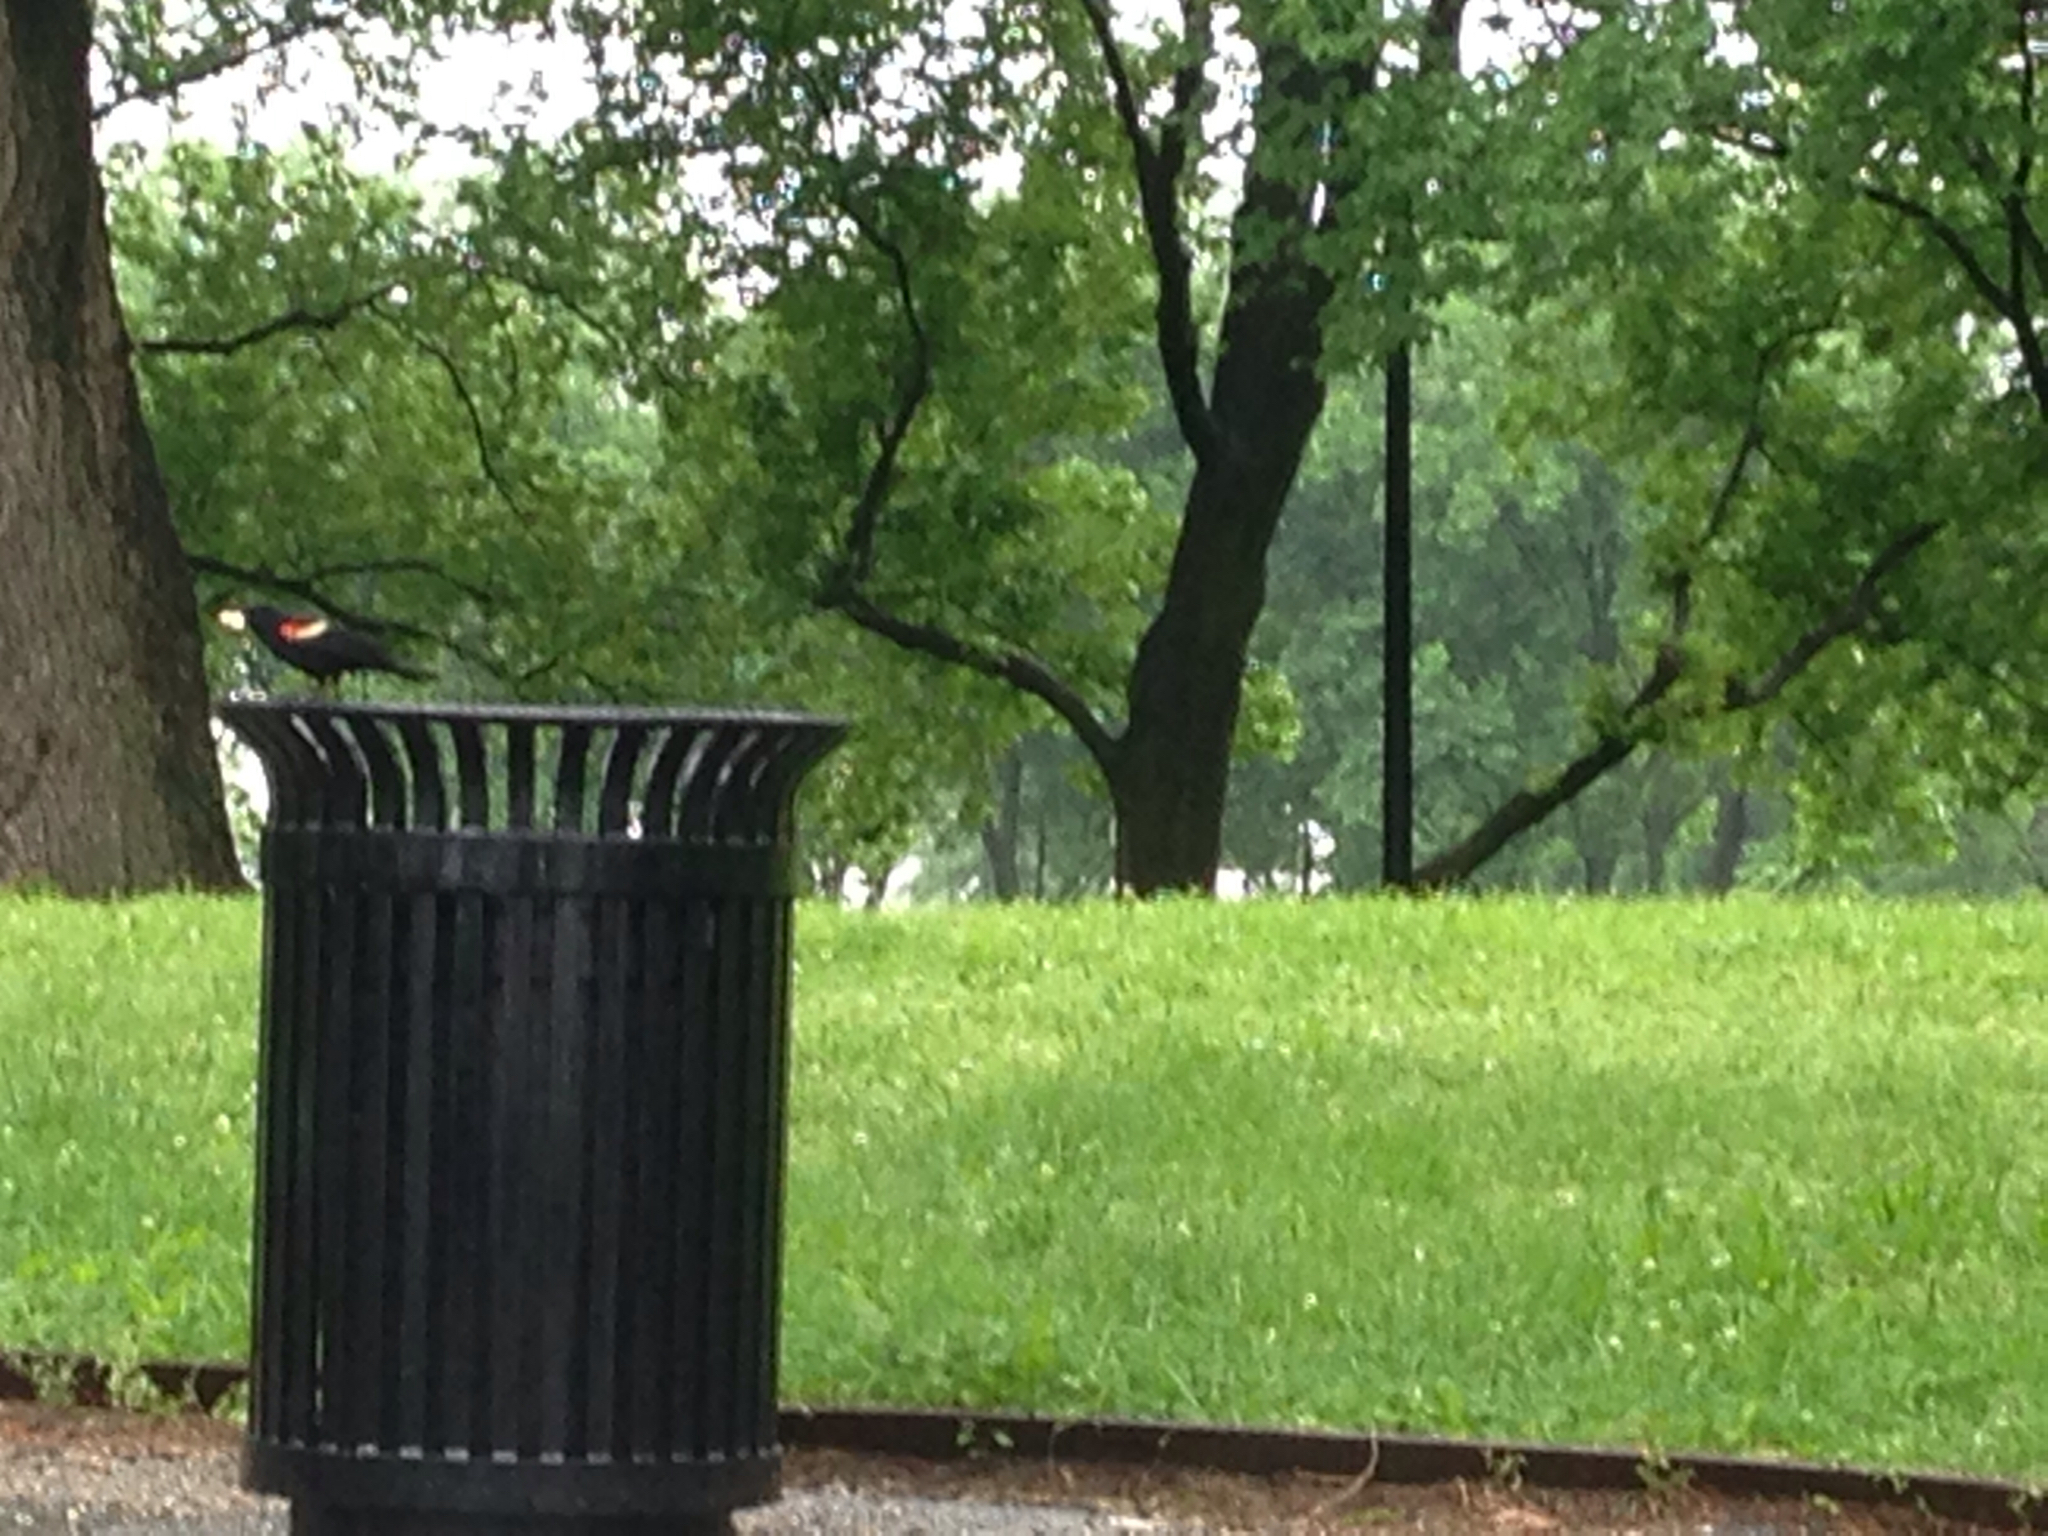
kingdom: Animalia
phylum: Chordata
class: Aves
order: Passeriformes
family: Icteridae
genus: Agelaius
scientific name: Agelaius phoeniceus
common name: Red-winged blackbird
